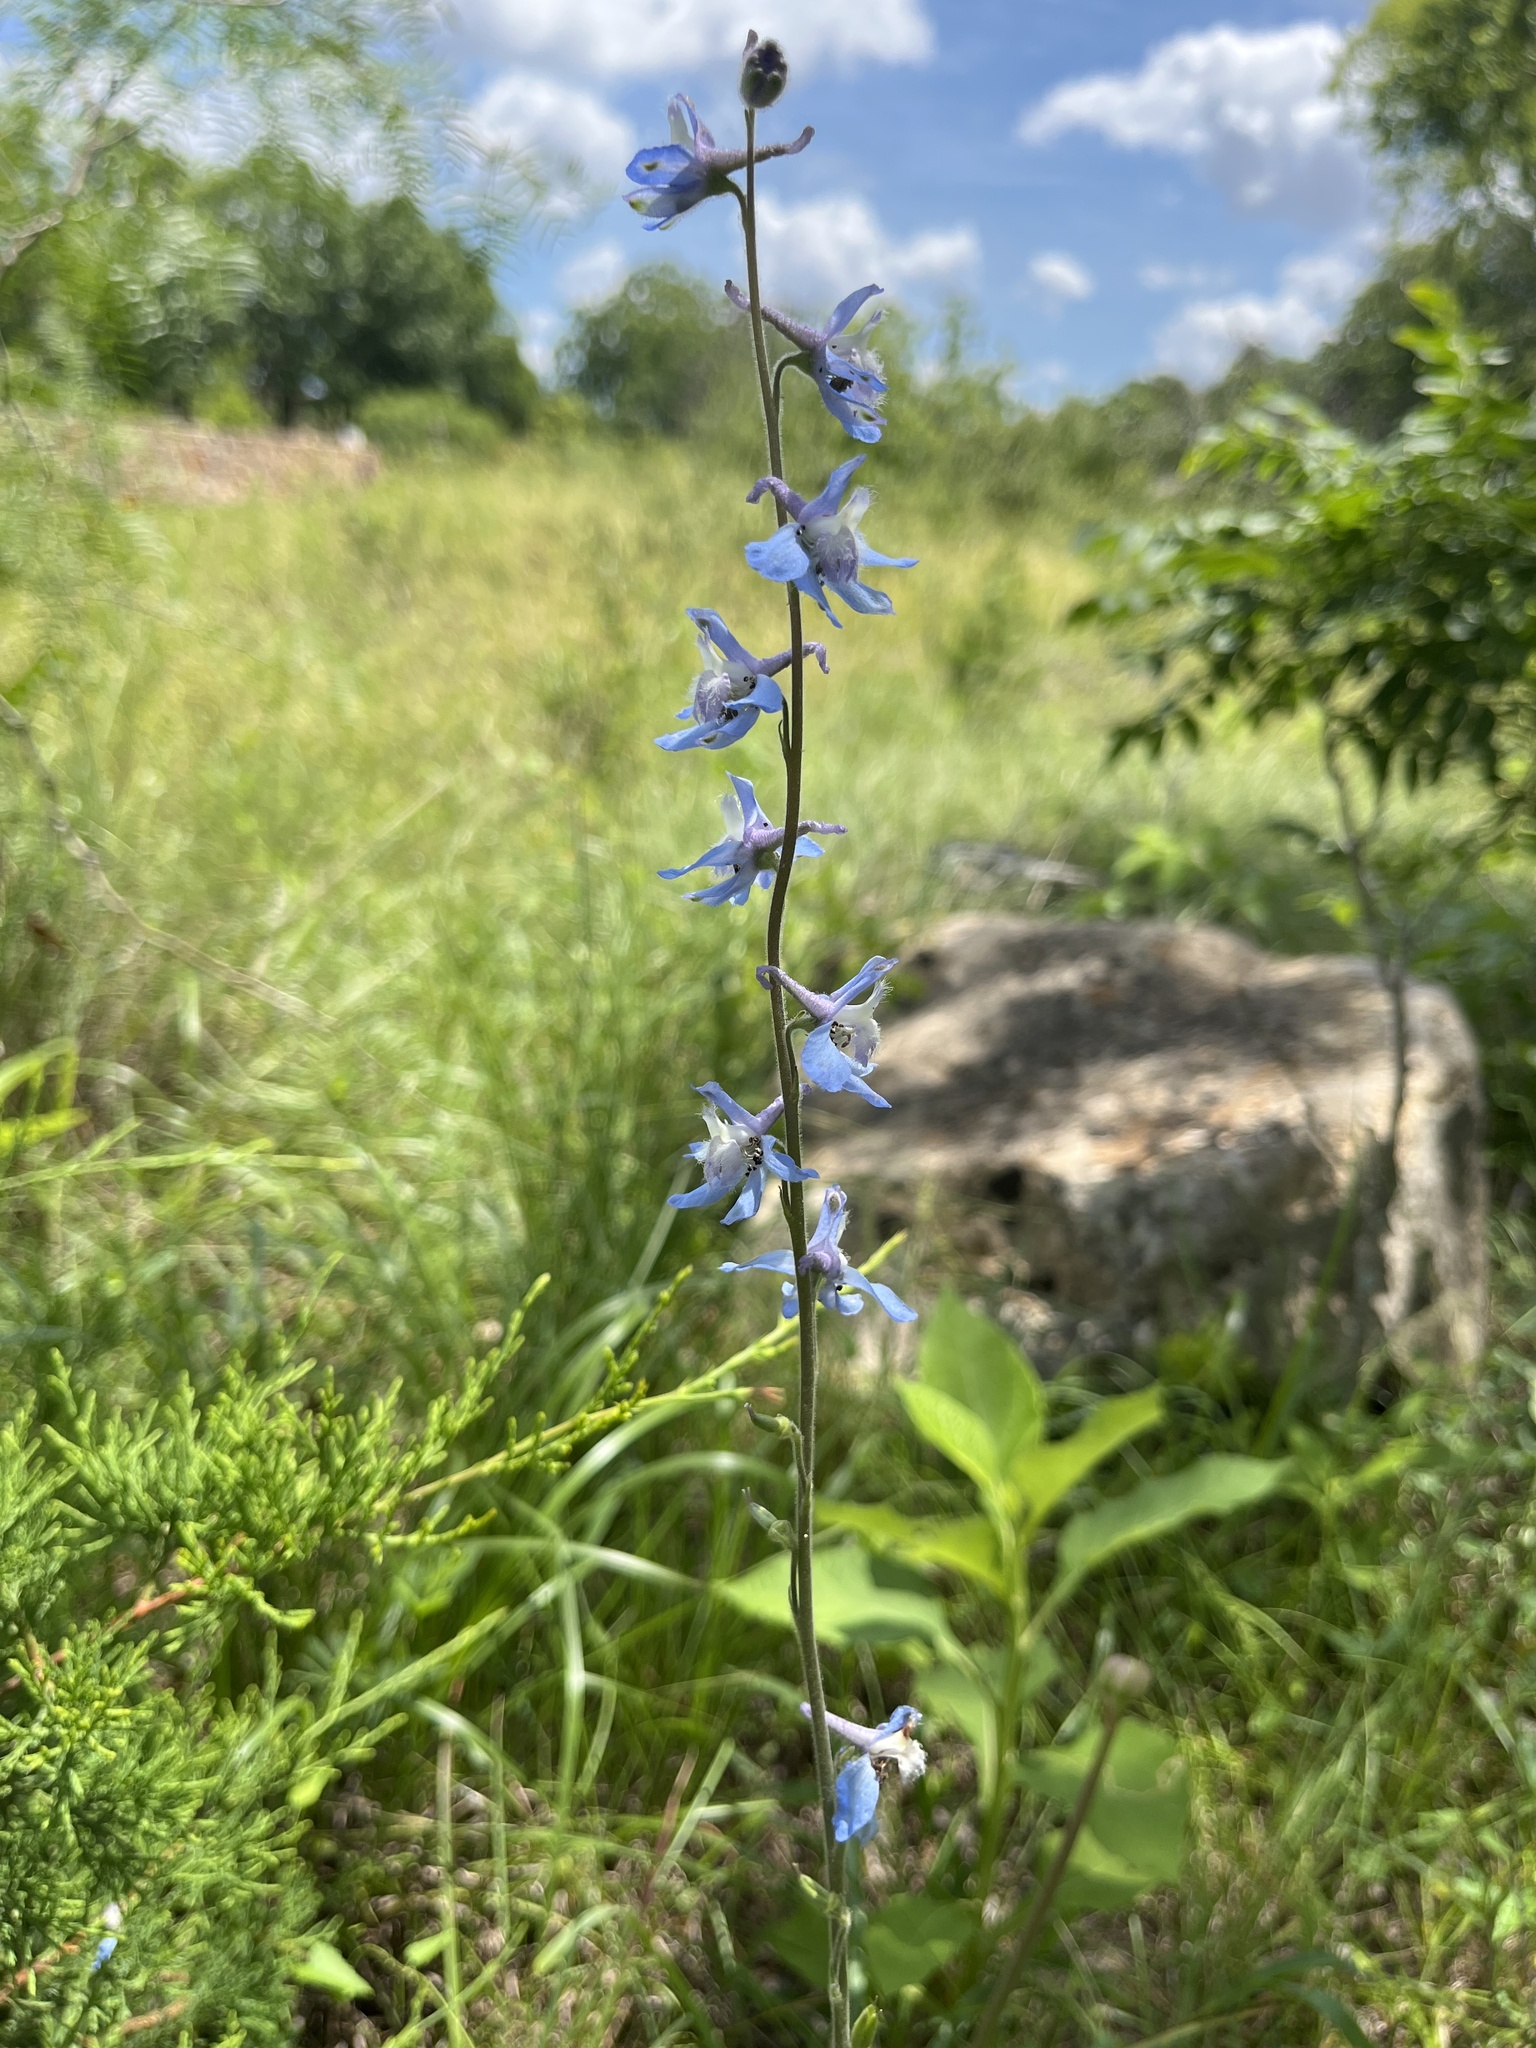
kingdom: Plantae
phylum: Tracheophyta
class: Magnoliopsida
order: Ranunculales
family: Ranunculaceae
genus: Delphinium
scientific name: Delphinium carolinianum
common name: Carolina larkspur
